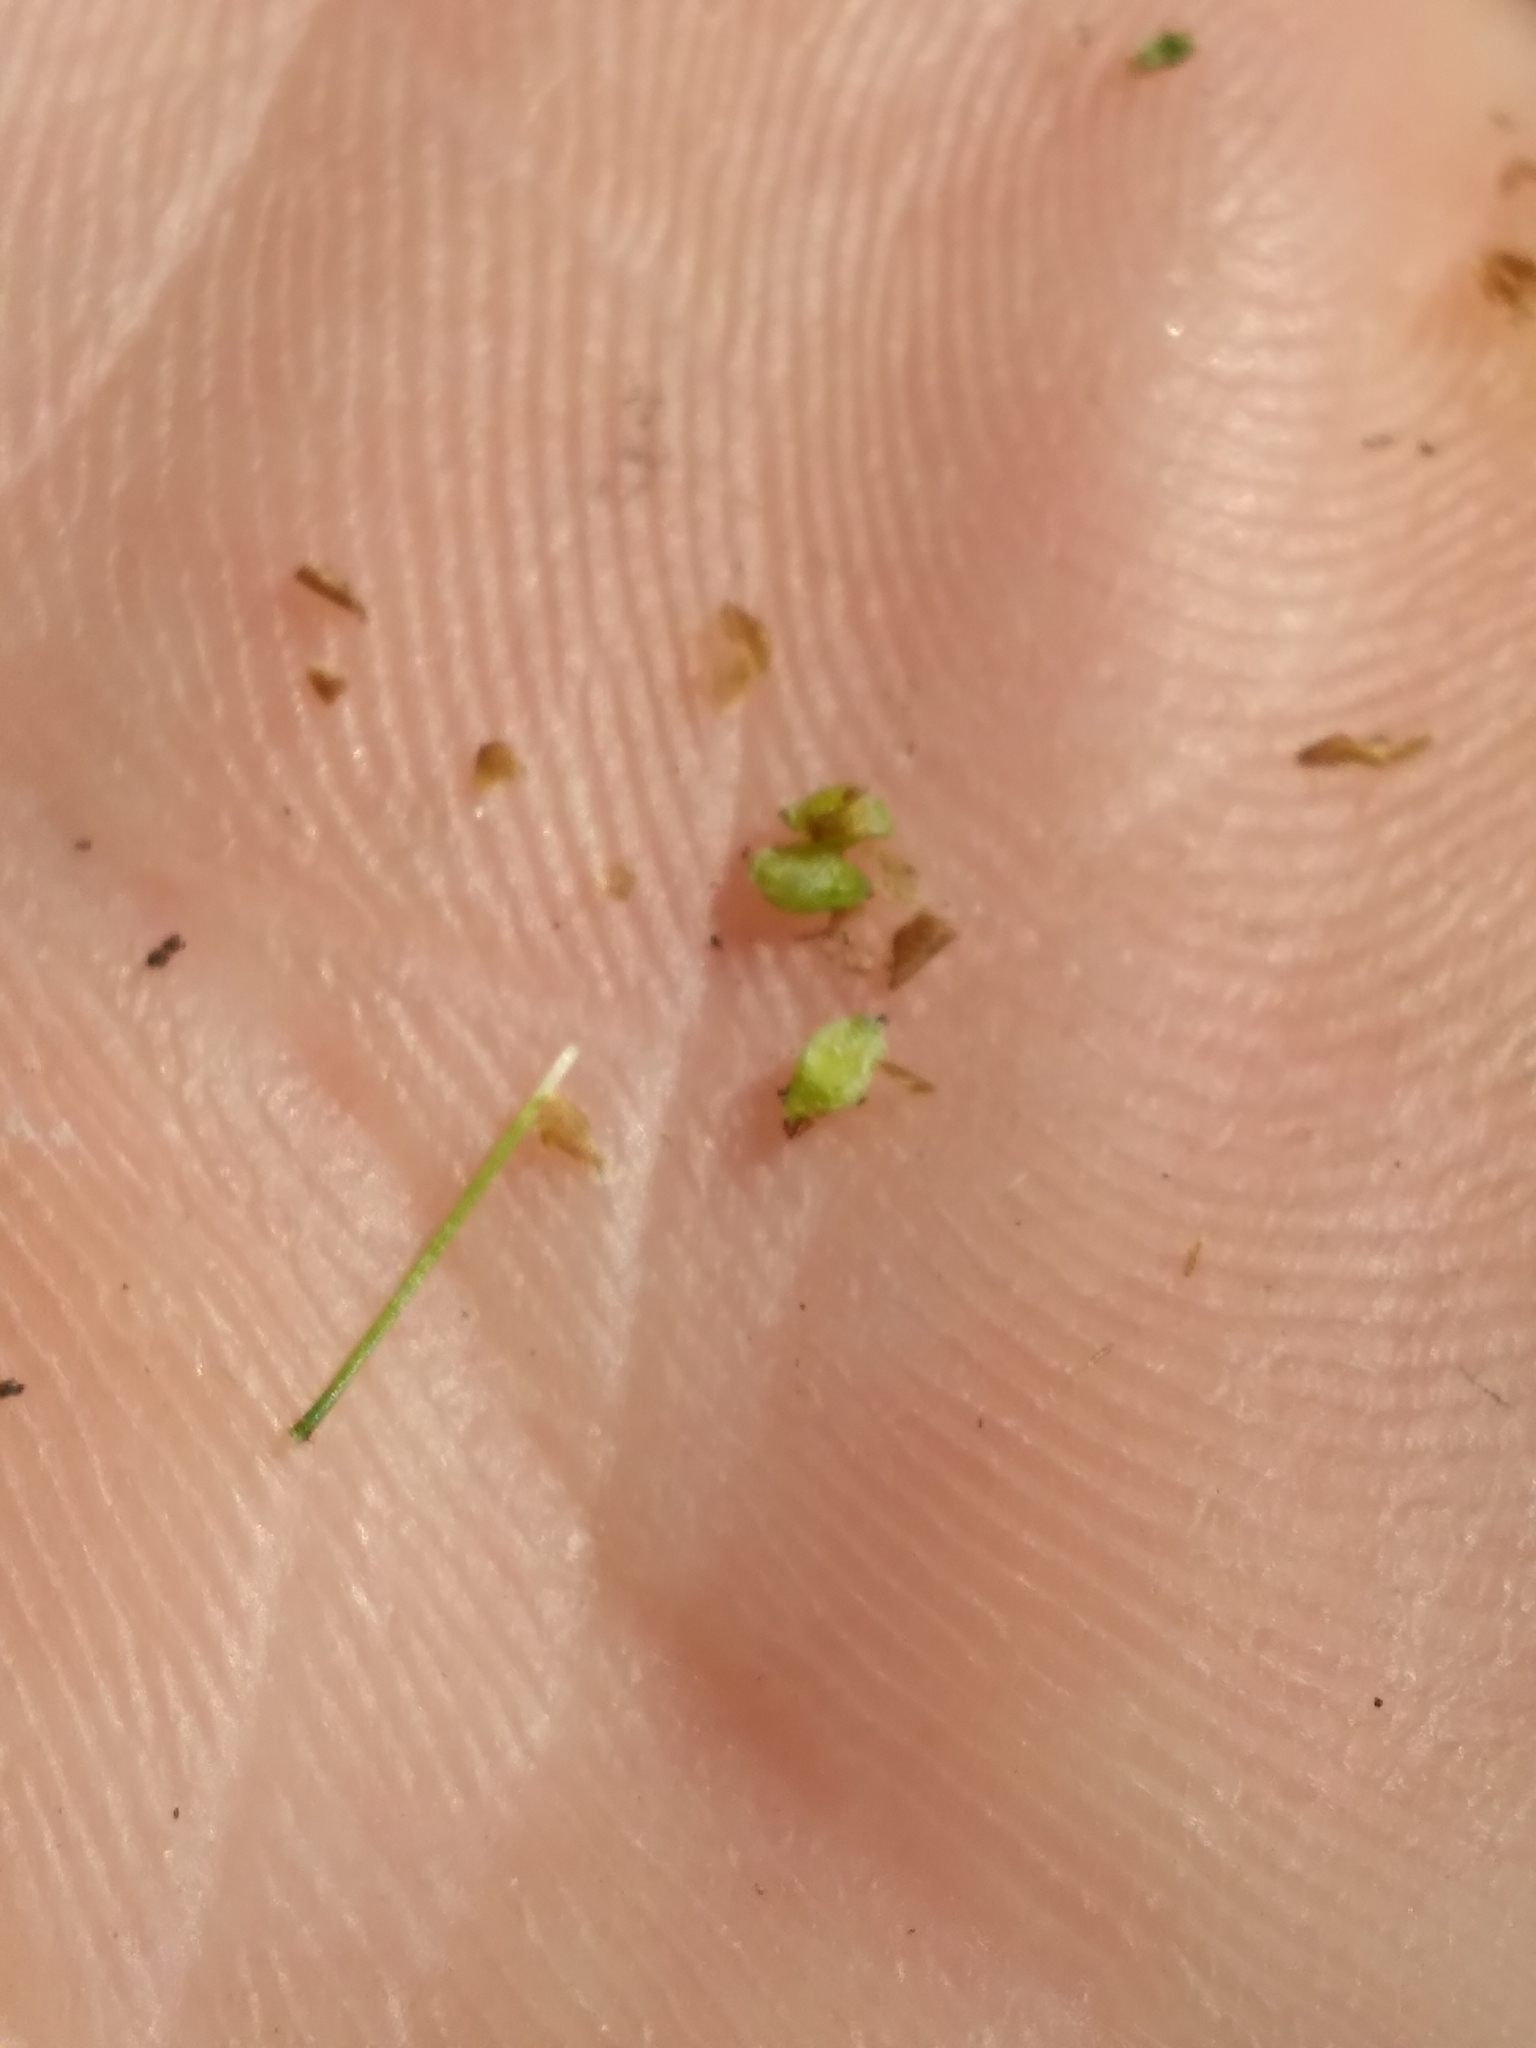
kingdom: Plantae
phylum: Tracheophyta
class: Liliopsida
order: Poales
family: Cyperaceae
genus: Rhynchospora
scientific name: Rhynchospora rariflora
